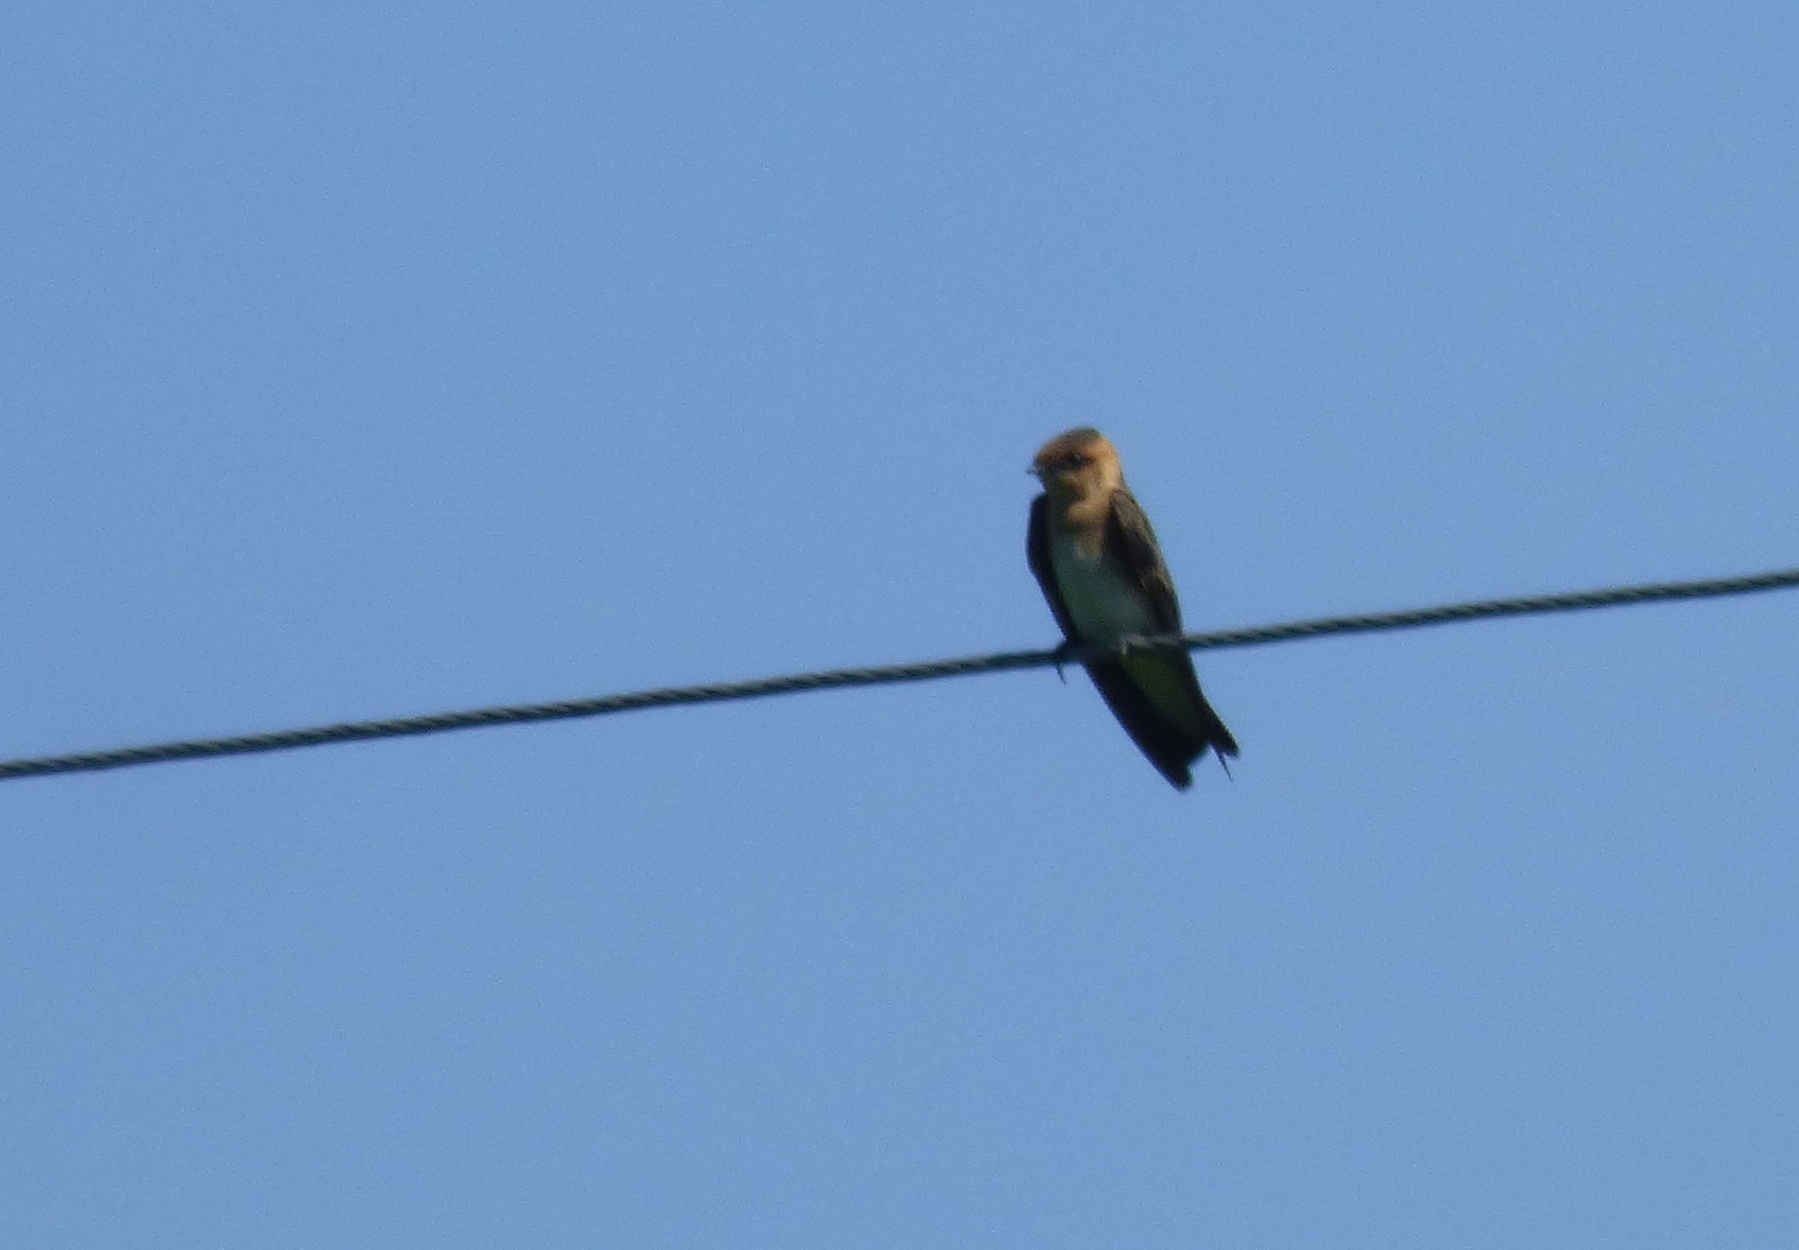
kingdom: Animalia
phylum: Chordata
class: Aves
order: Passeriformes
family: Hirundinidae
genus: Alopochelidon
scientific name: Alopochelidon fucata
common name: Tawny-headed swallow
